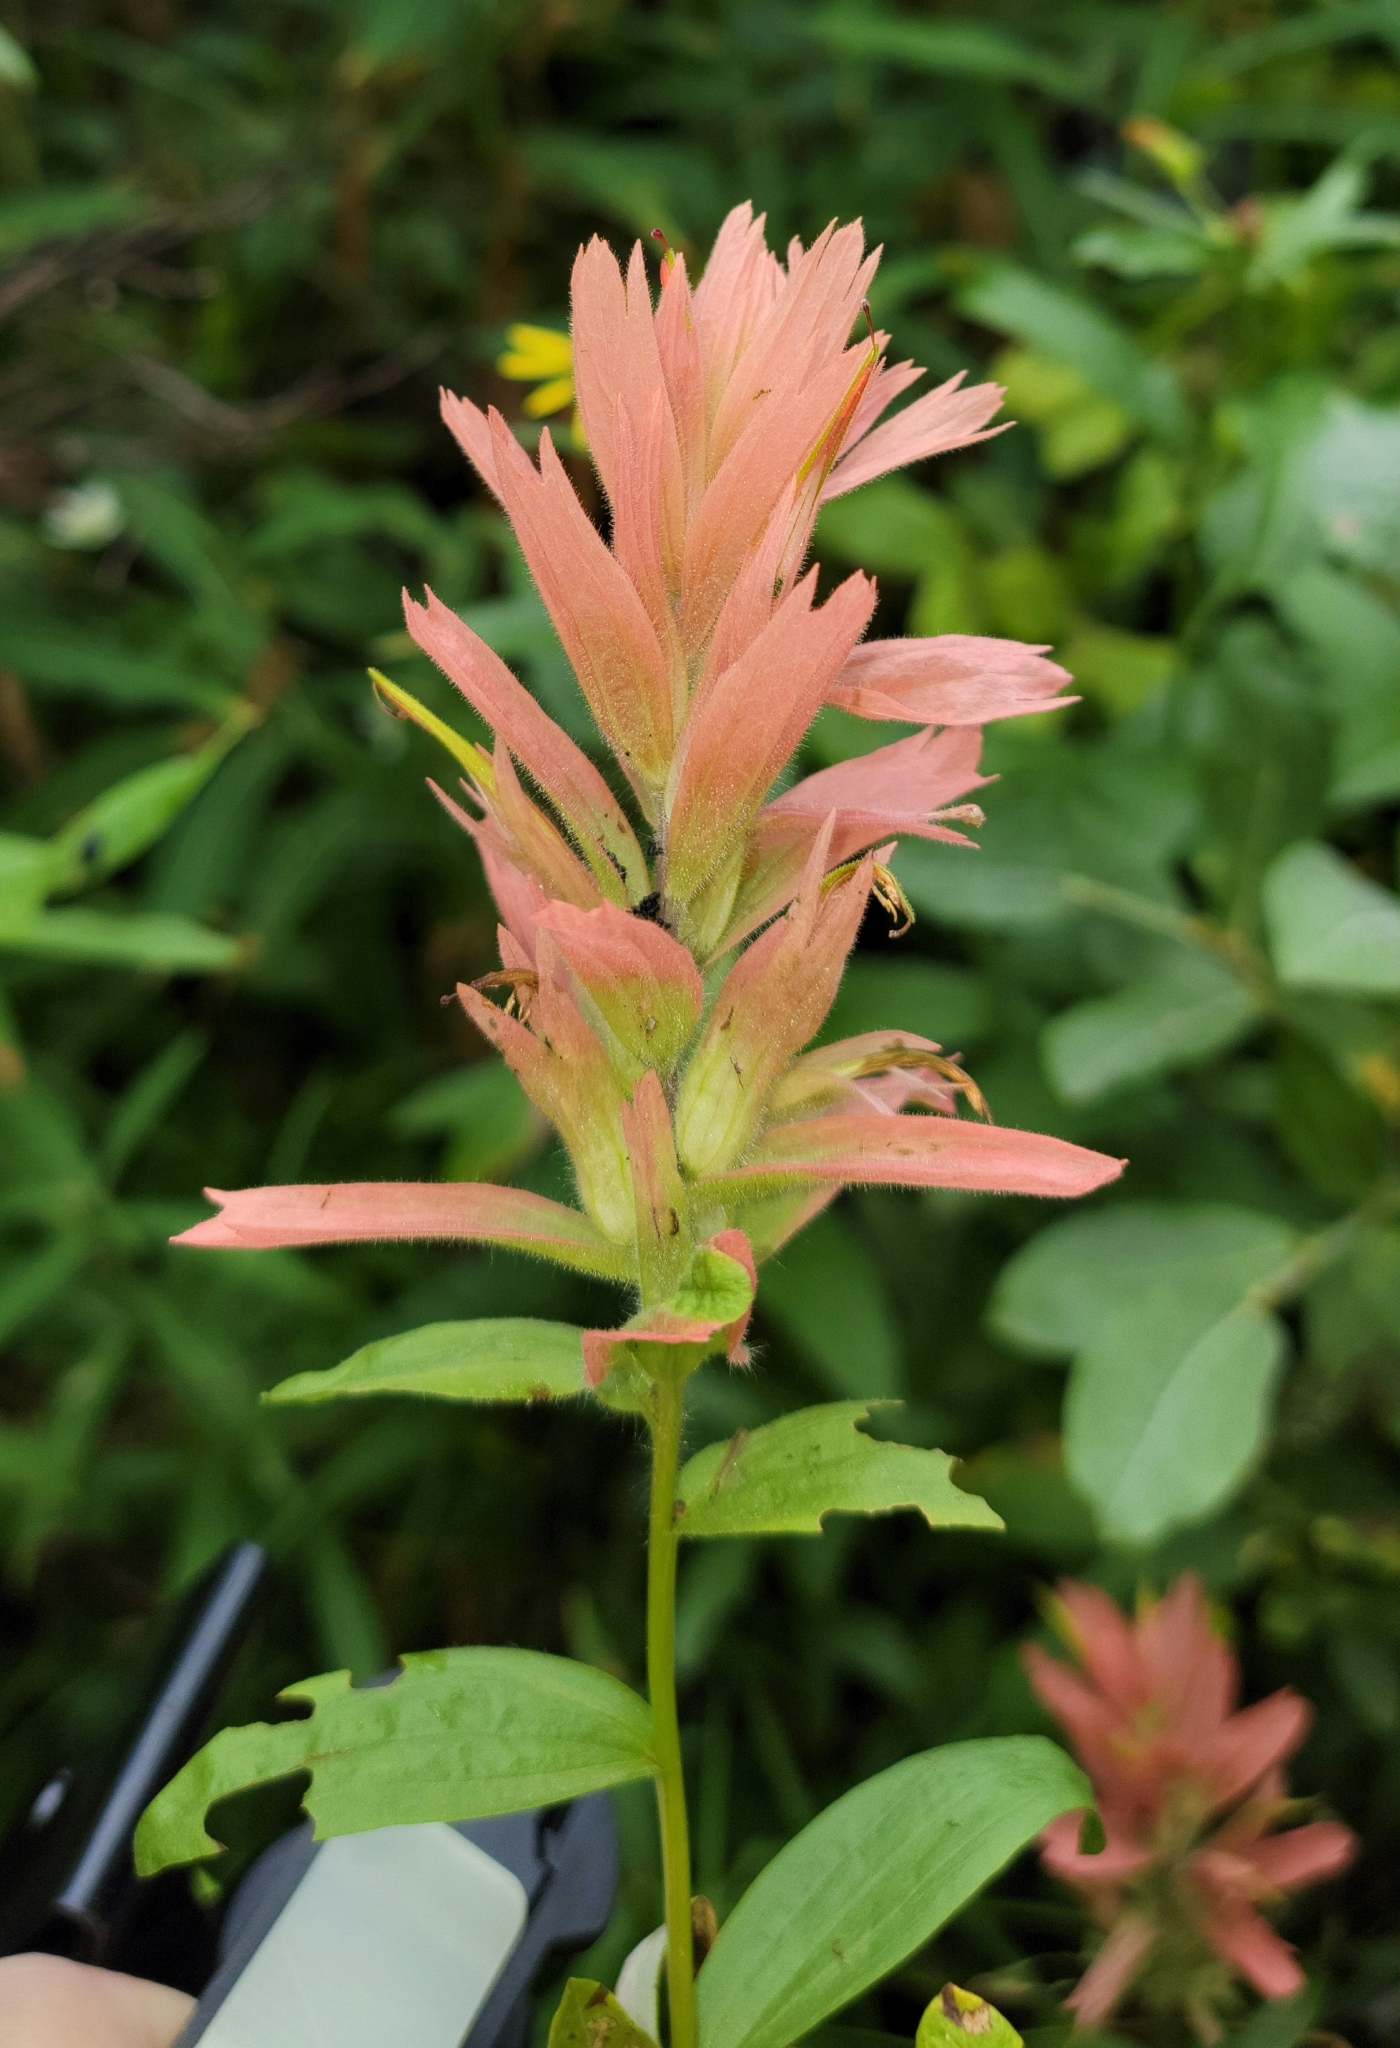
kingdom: Plantae
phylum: Tracheophyta
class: Magnoliopsida
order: Lamiales
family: Orobanchaceae
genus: Castilleja
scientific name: Castilleja miniata
